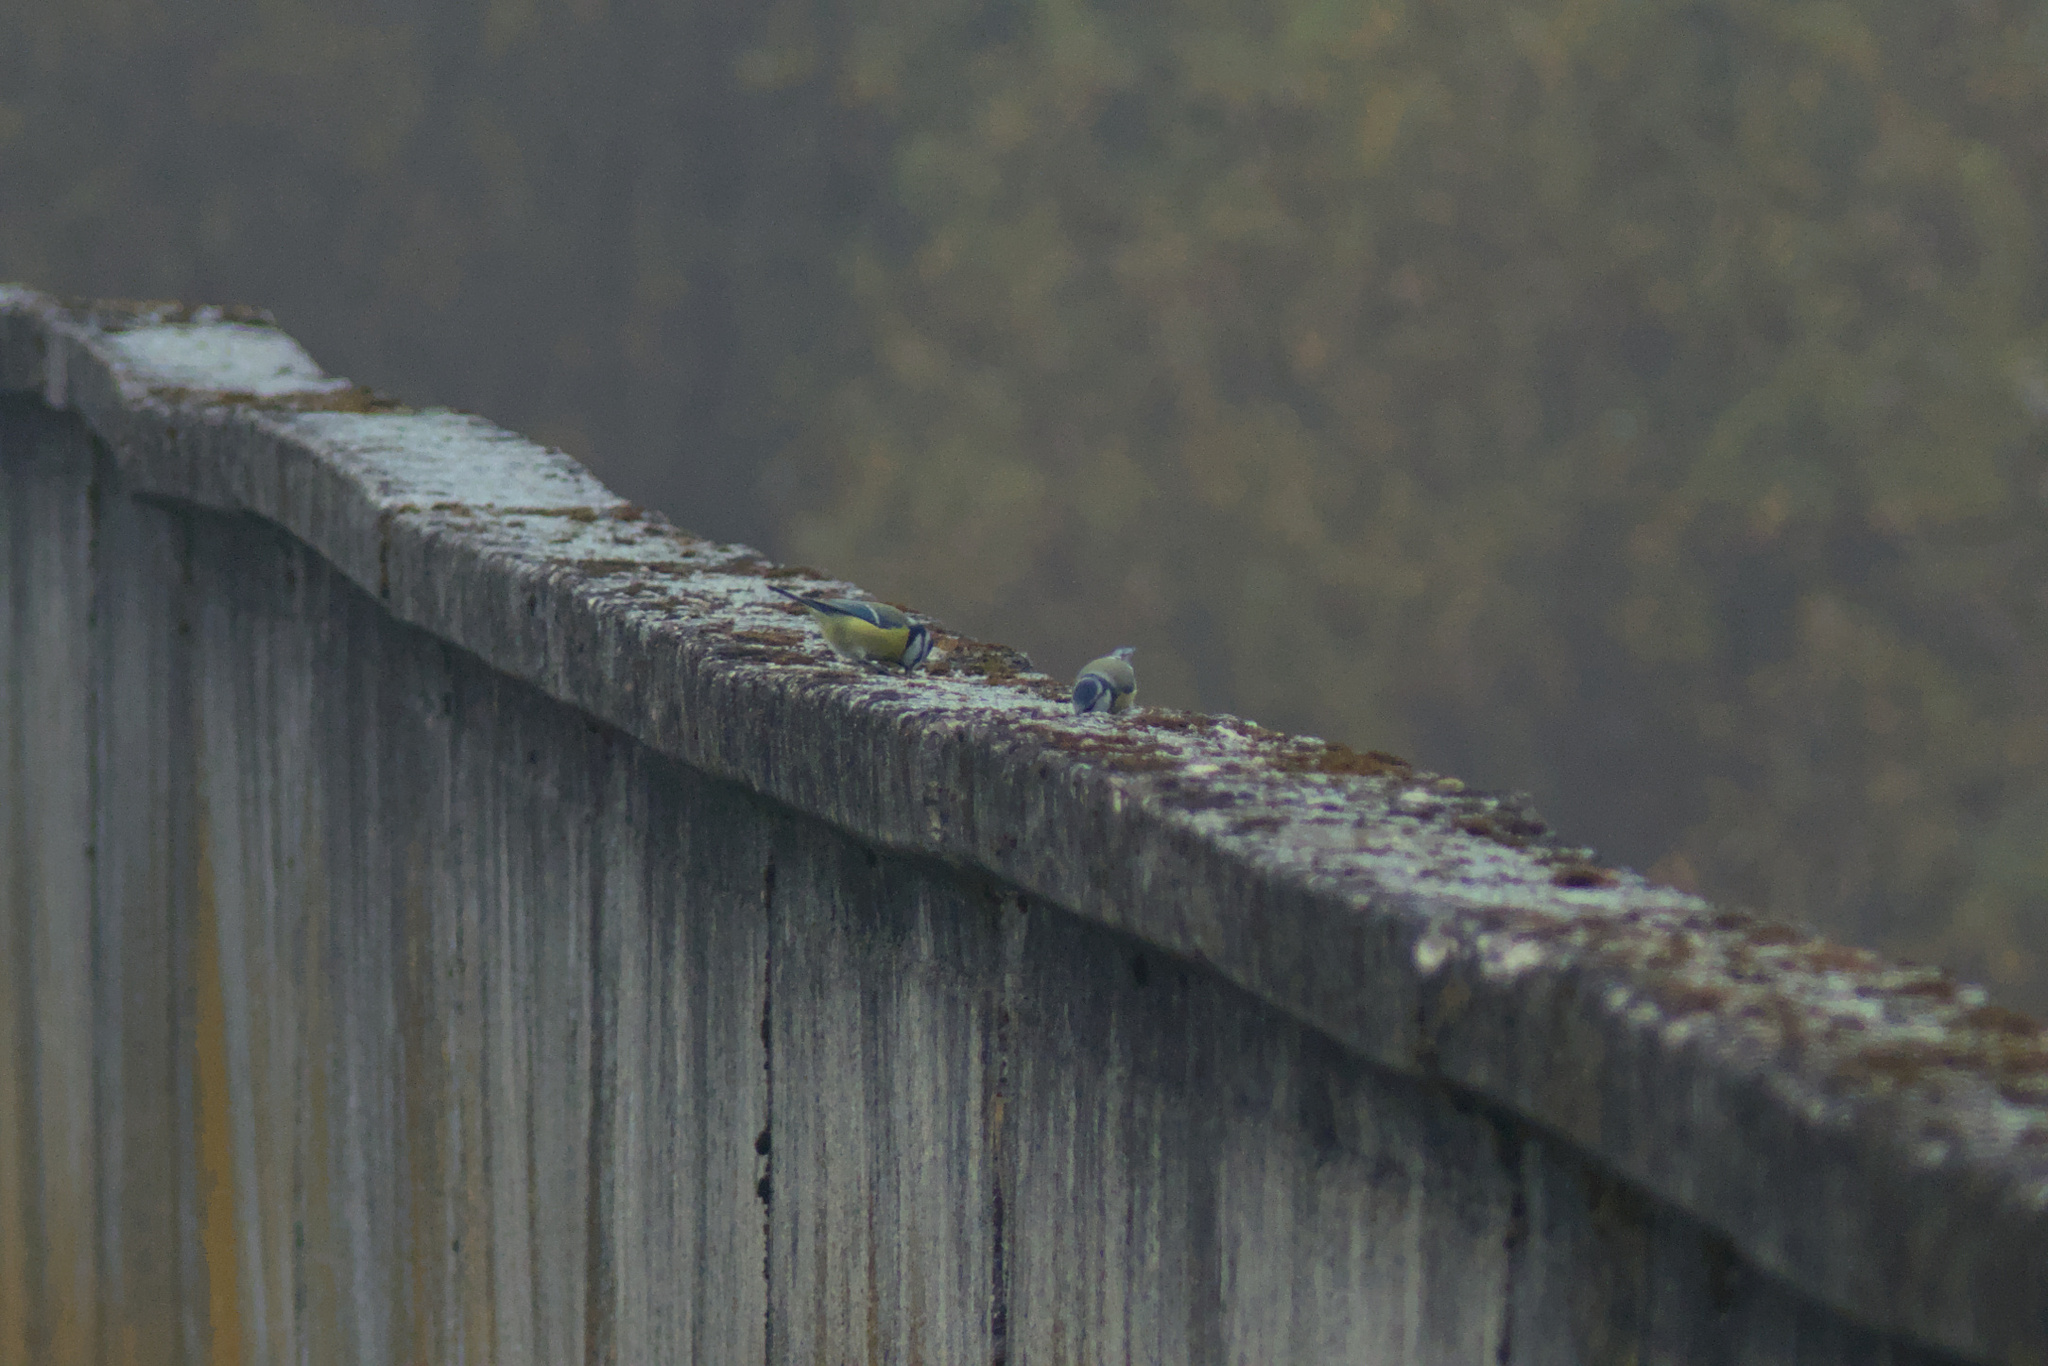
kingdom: Animalia
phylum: Chordata
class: Aves
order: Passeriformes
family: Paridae
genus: Cyanistes
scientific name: Cyanistes caeruleus
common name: Eurasian blue tit
